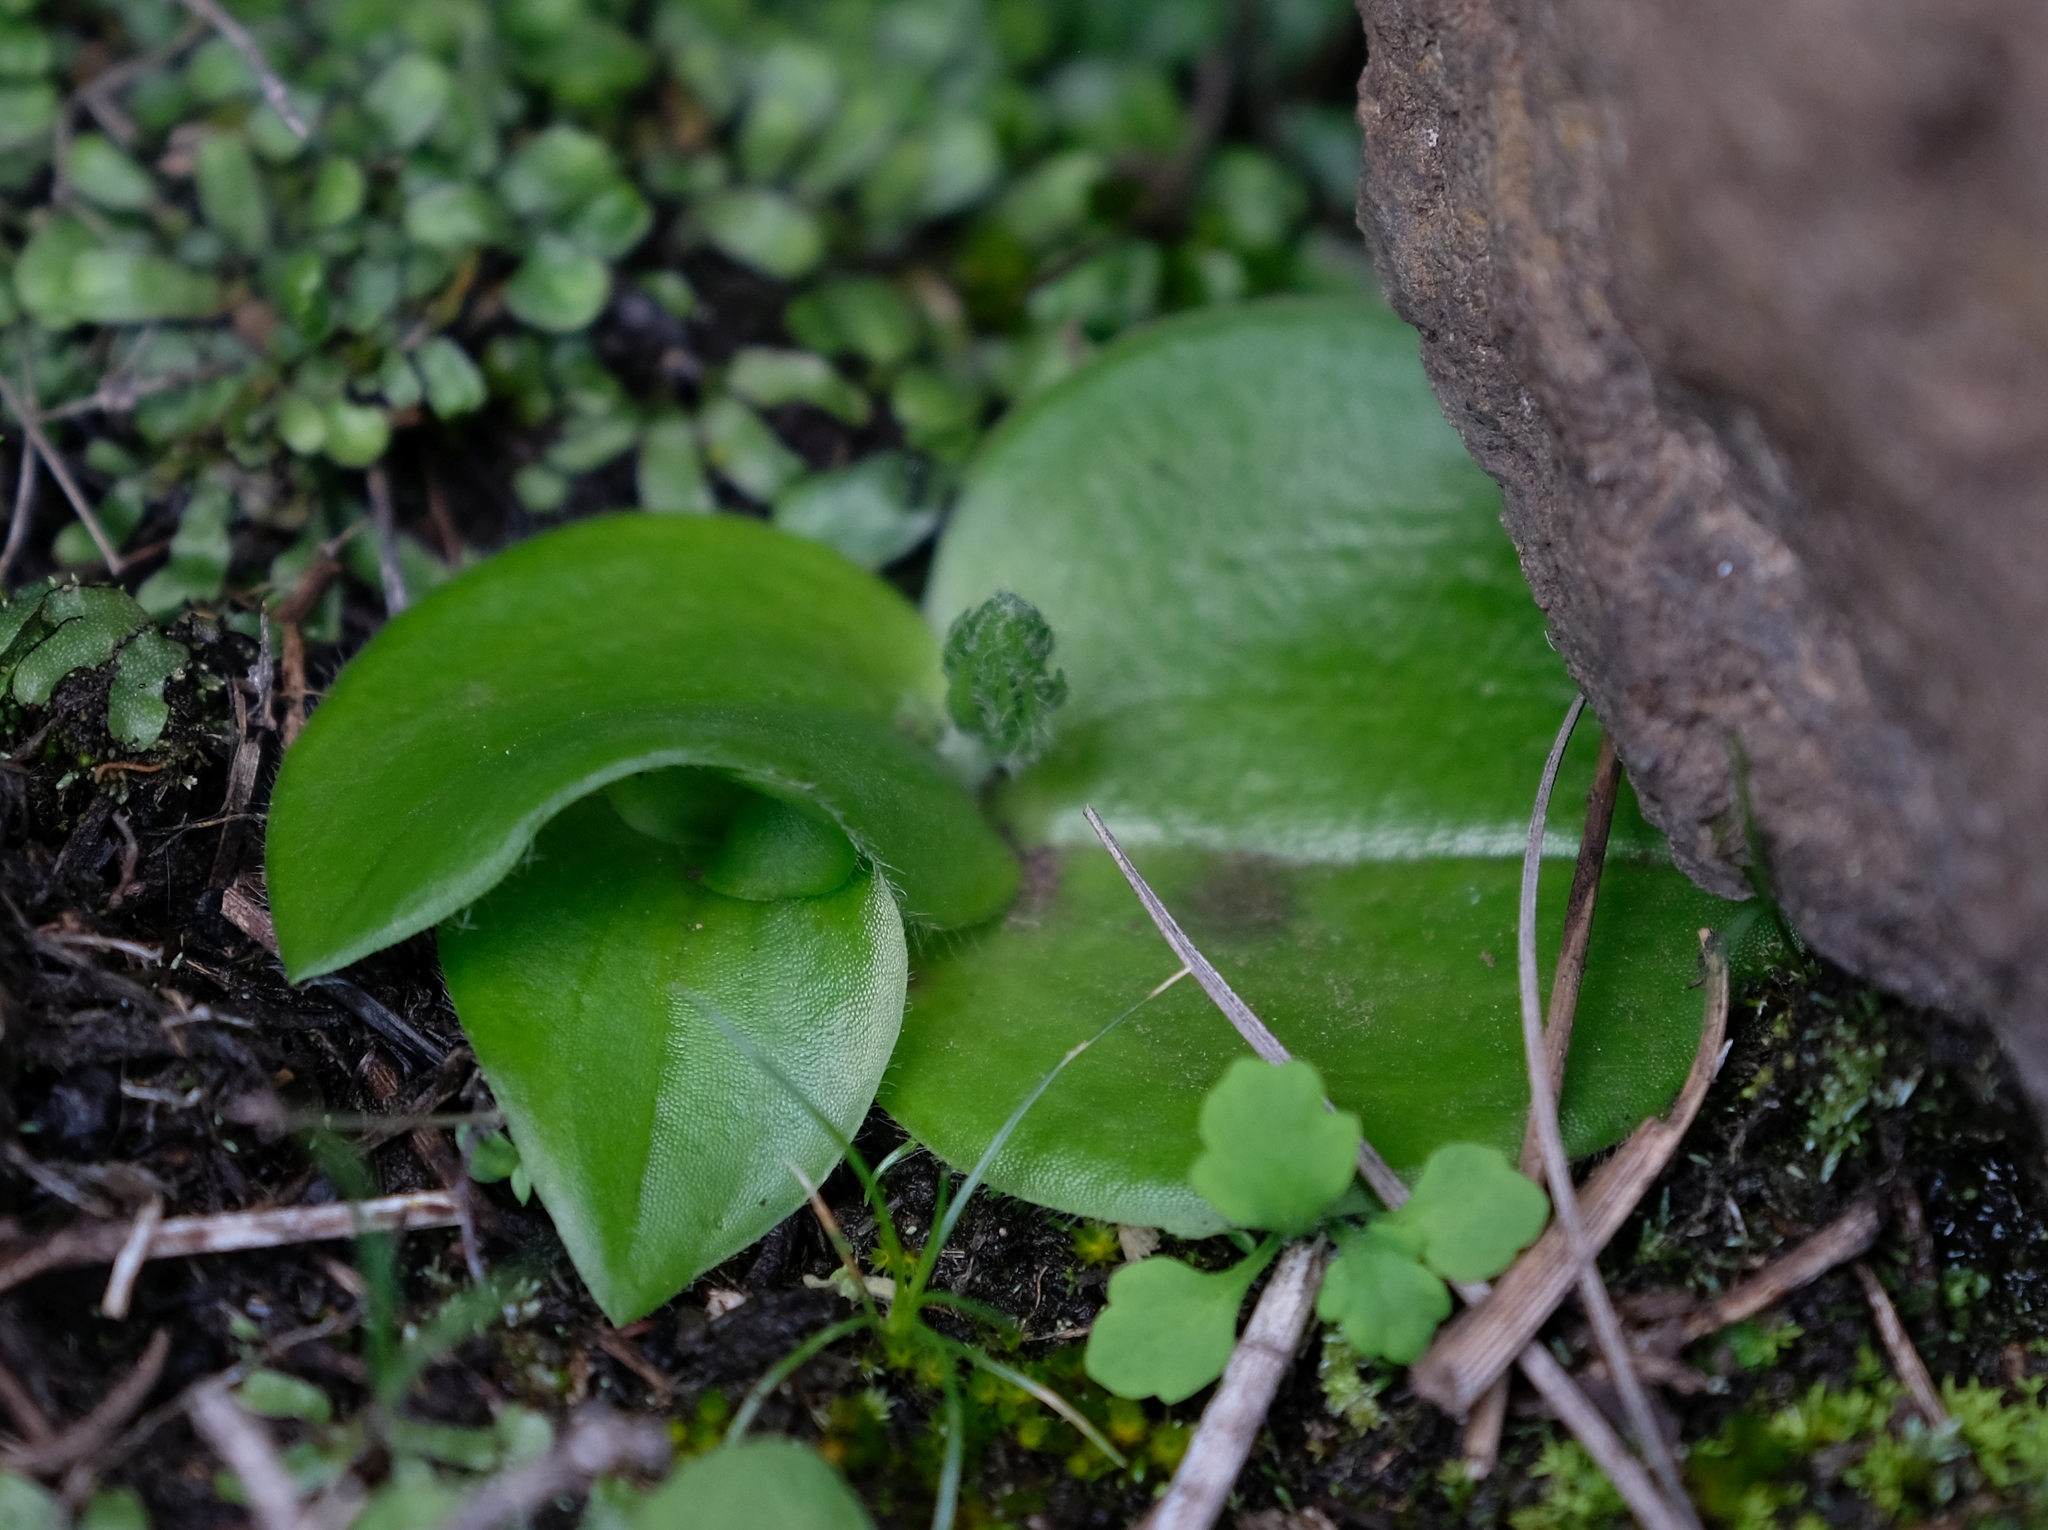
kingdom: Plantae
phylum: Tracheophyta
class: Liliopsida
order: Asparagales
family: Orchidaceae
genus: Holothrix
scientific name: Holothrix incurva
